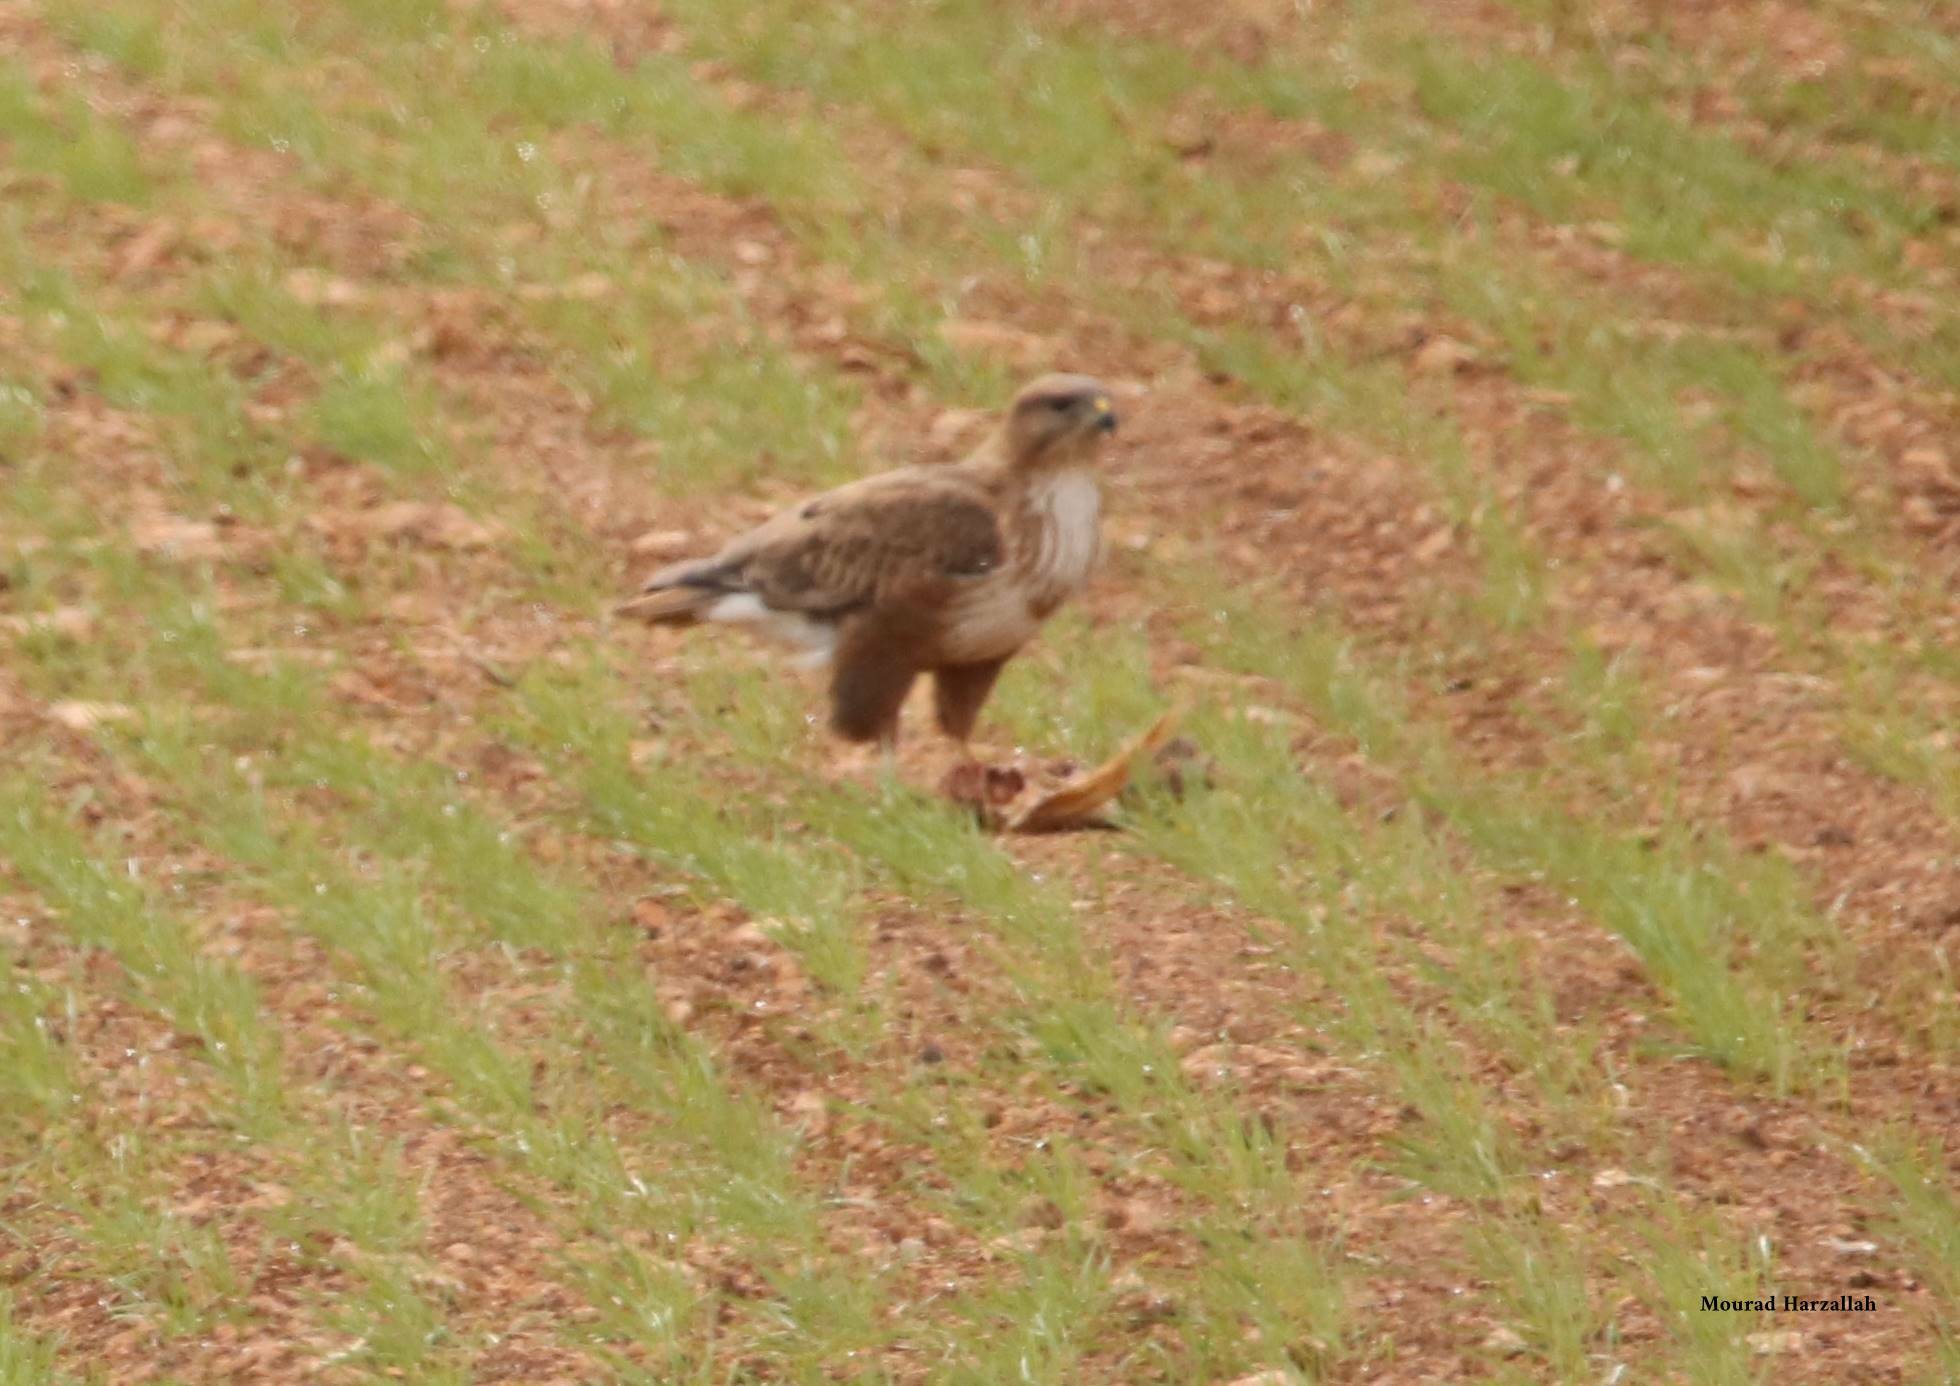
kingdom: Animalia
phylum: Chordata
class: Aves
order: Accipitriformes
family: Accipitridae
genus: Buteo
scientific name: Buteo rufinus
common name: Long-legged buzzard
